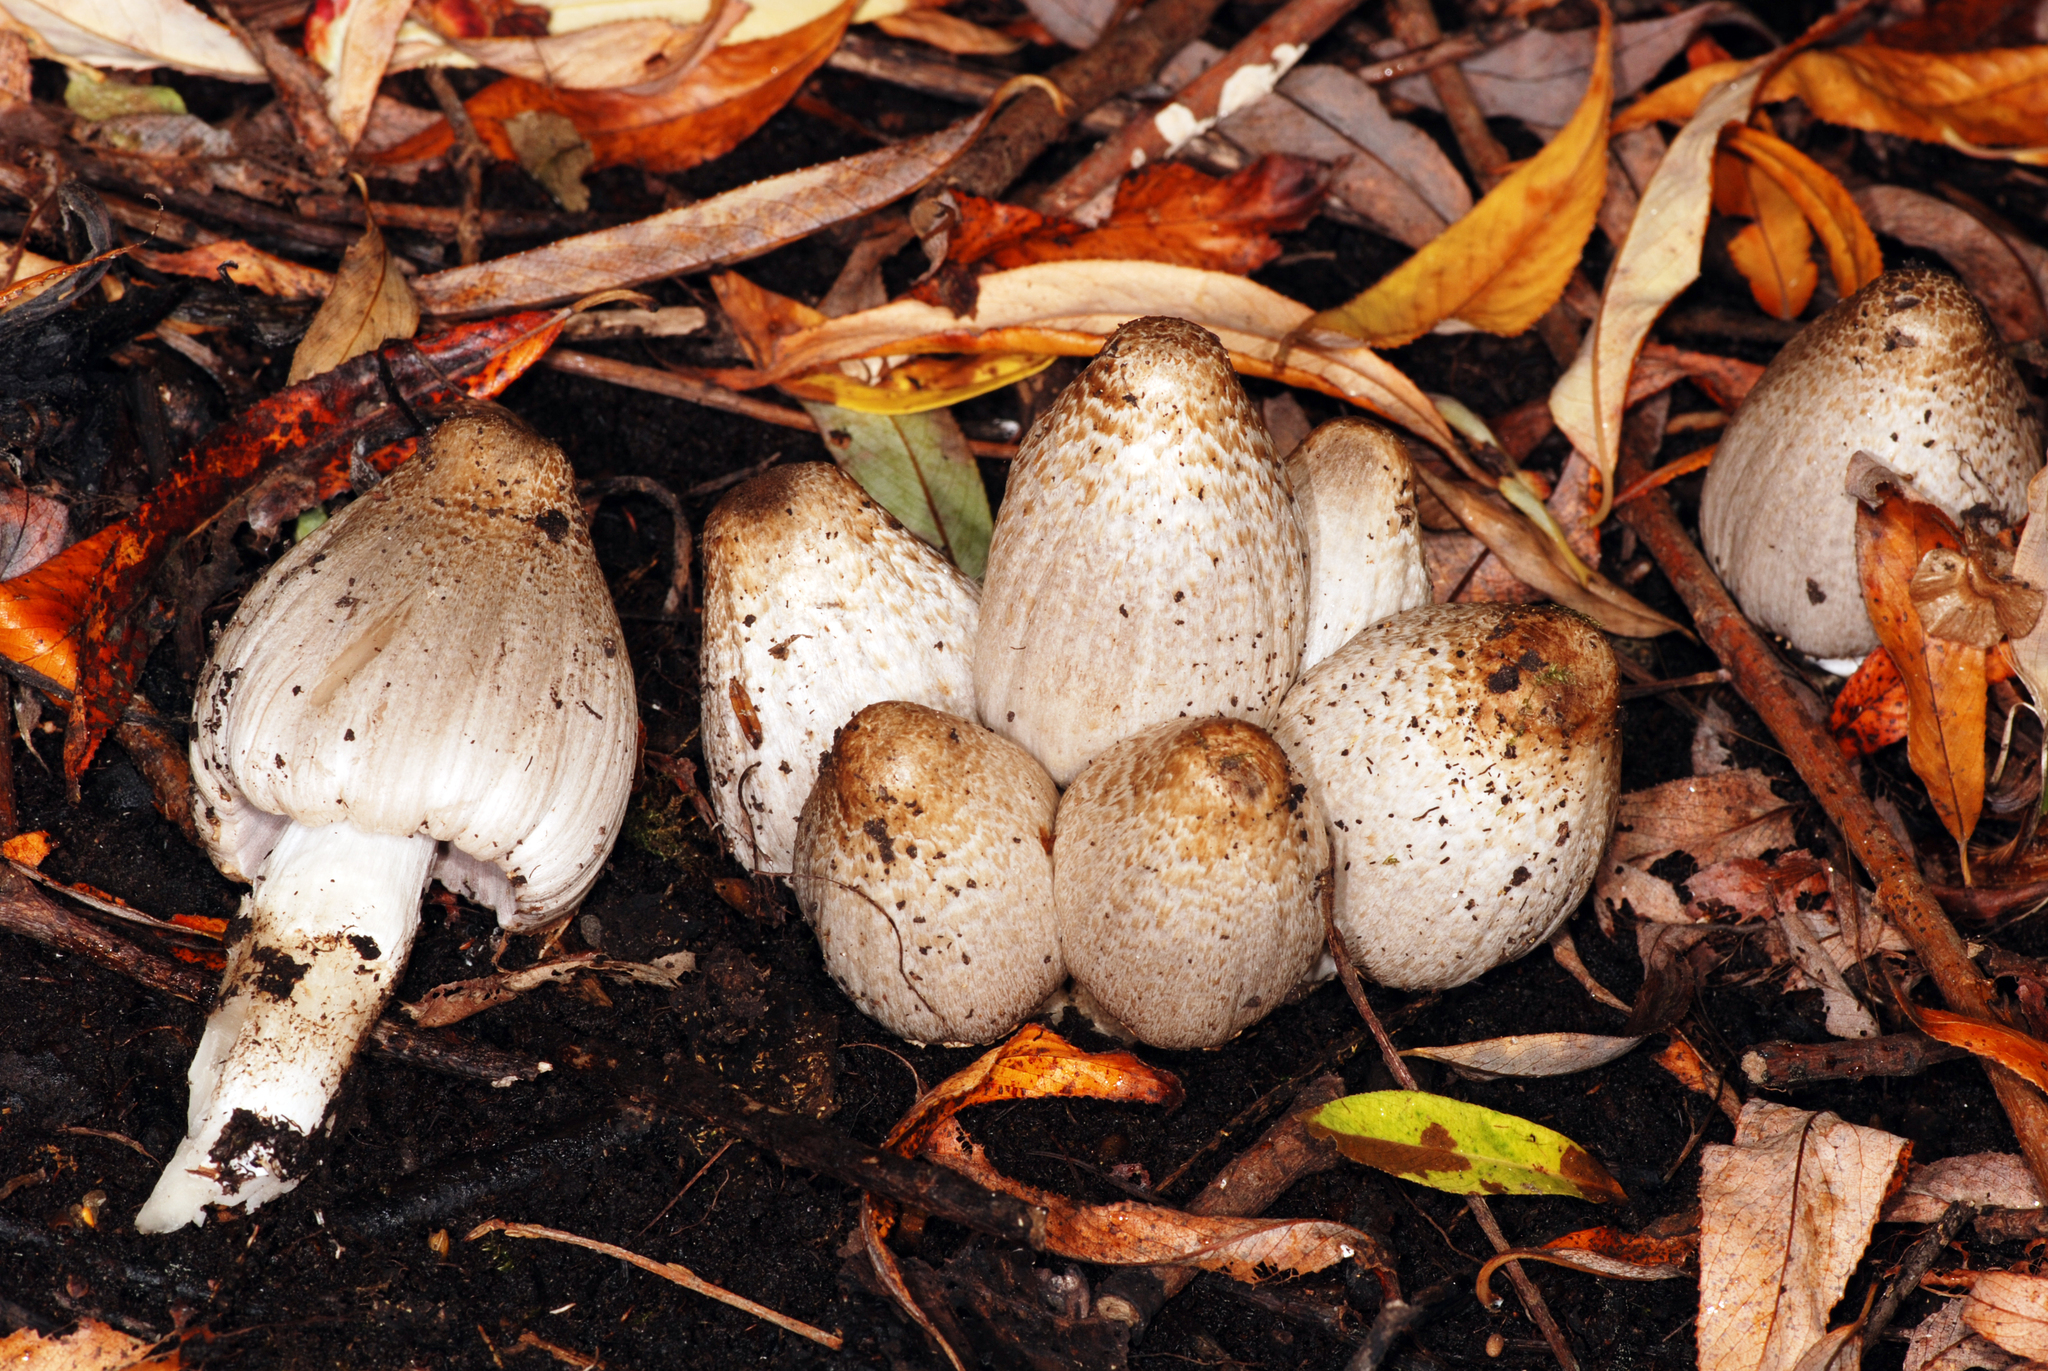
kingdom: Fungi
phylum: Basidiomycota
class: Agaricomycetes
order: Agaricales
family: Psathyrellaceae
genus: Coprinopsis
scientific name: Coprinopsis depressiceps
